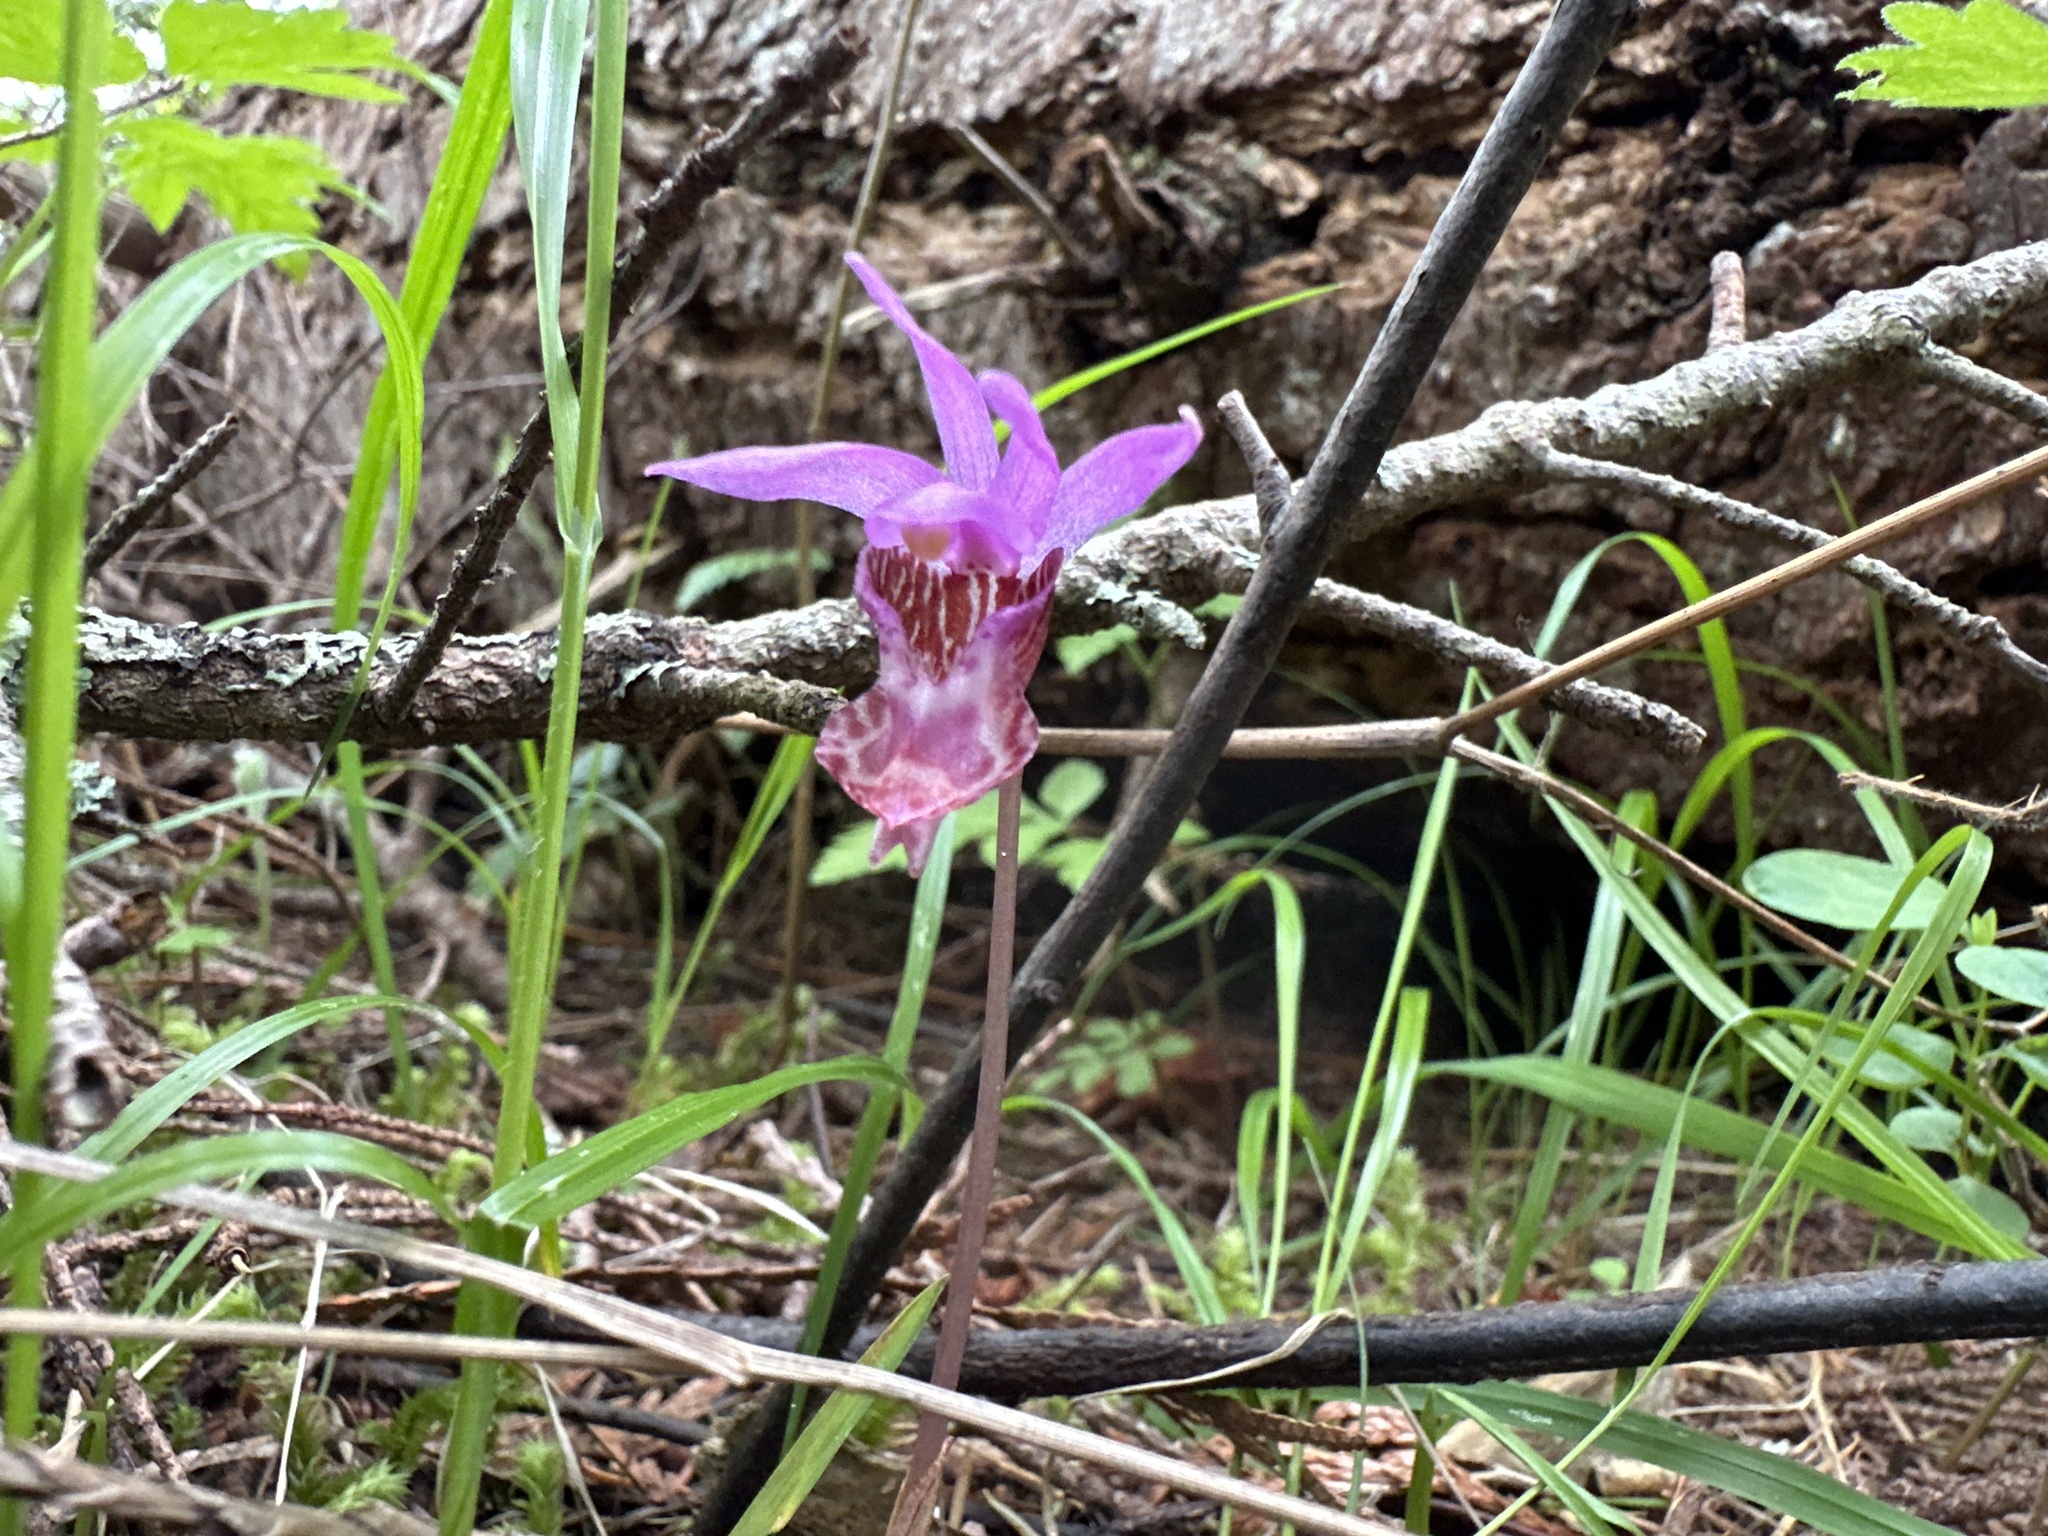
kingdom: Plantae
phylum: Tracheophyta
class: Liliopsida
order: Asparagales
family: Orchidaceae
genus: Calypso
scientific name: Calypso bulbosa
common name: Calypso
